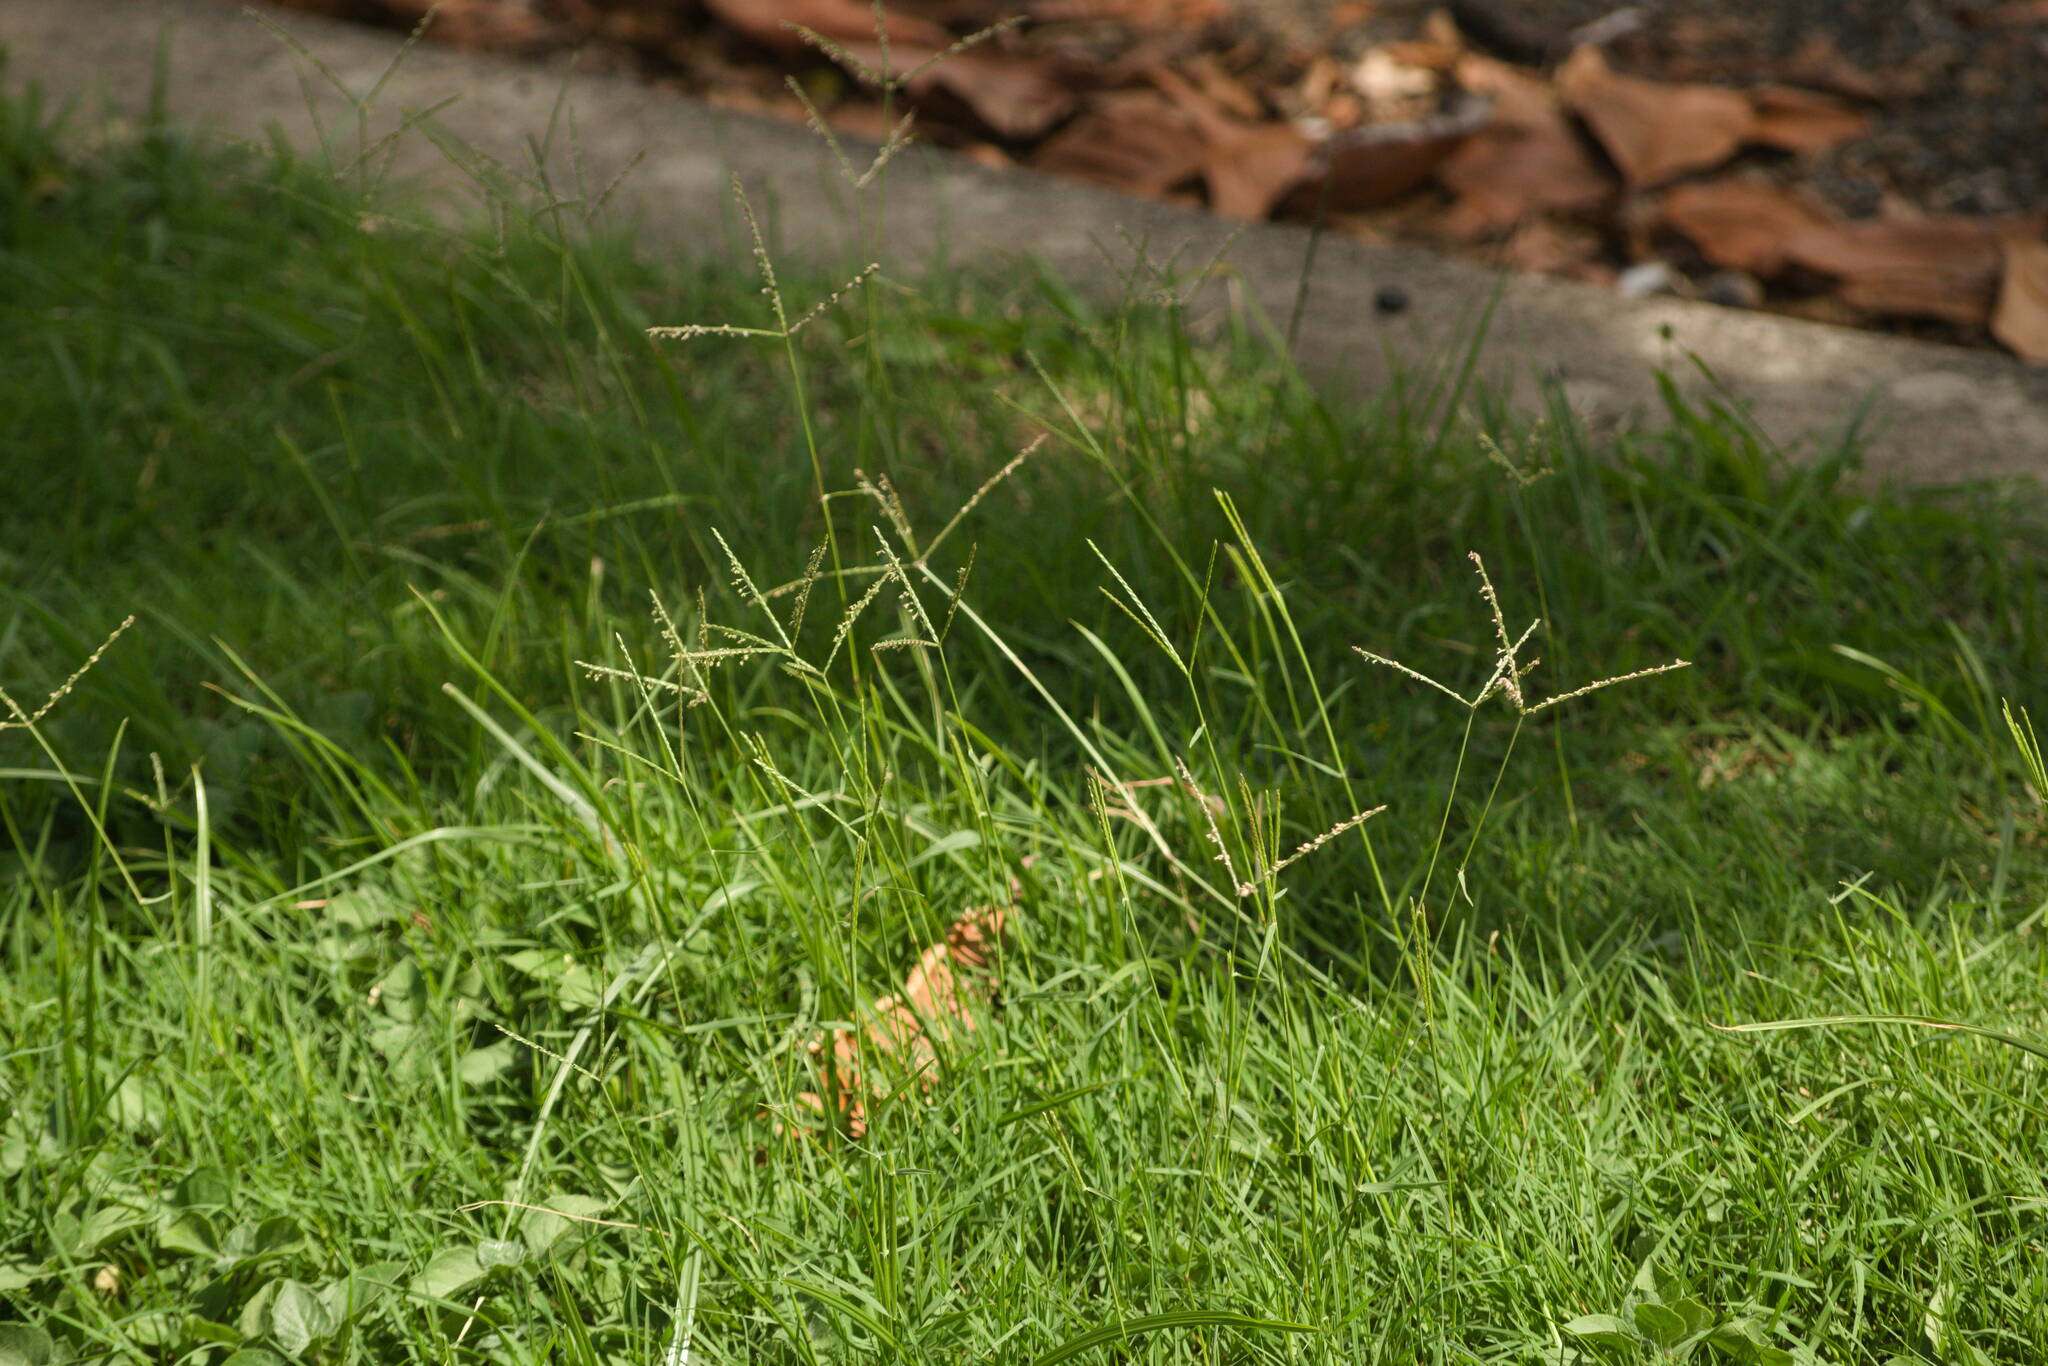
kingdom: Plantae
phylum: Tracheophyta
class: Liliopsida
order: Poales
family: Poaceae
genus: Cynodon
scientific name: Cynodon dactylon
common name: Bermuda grass
